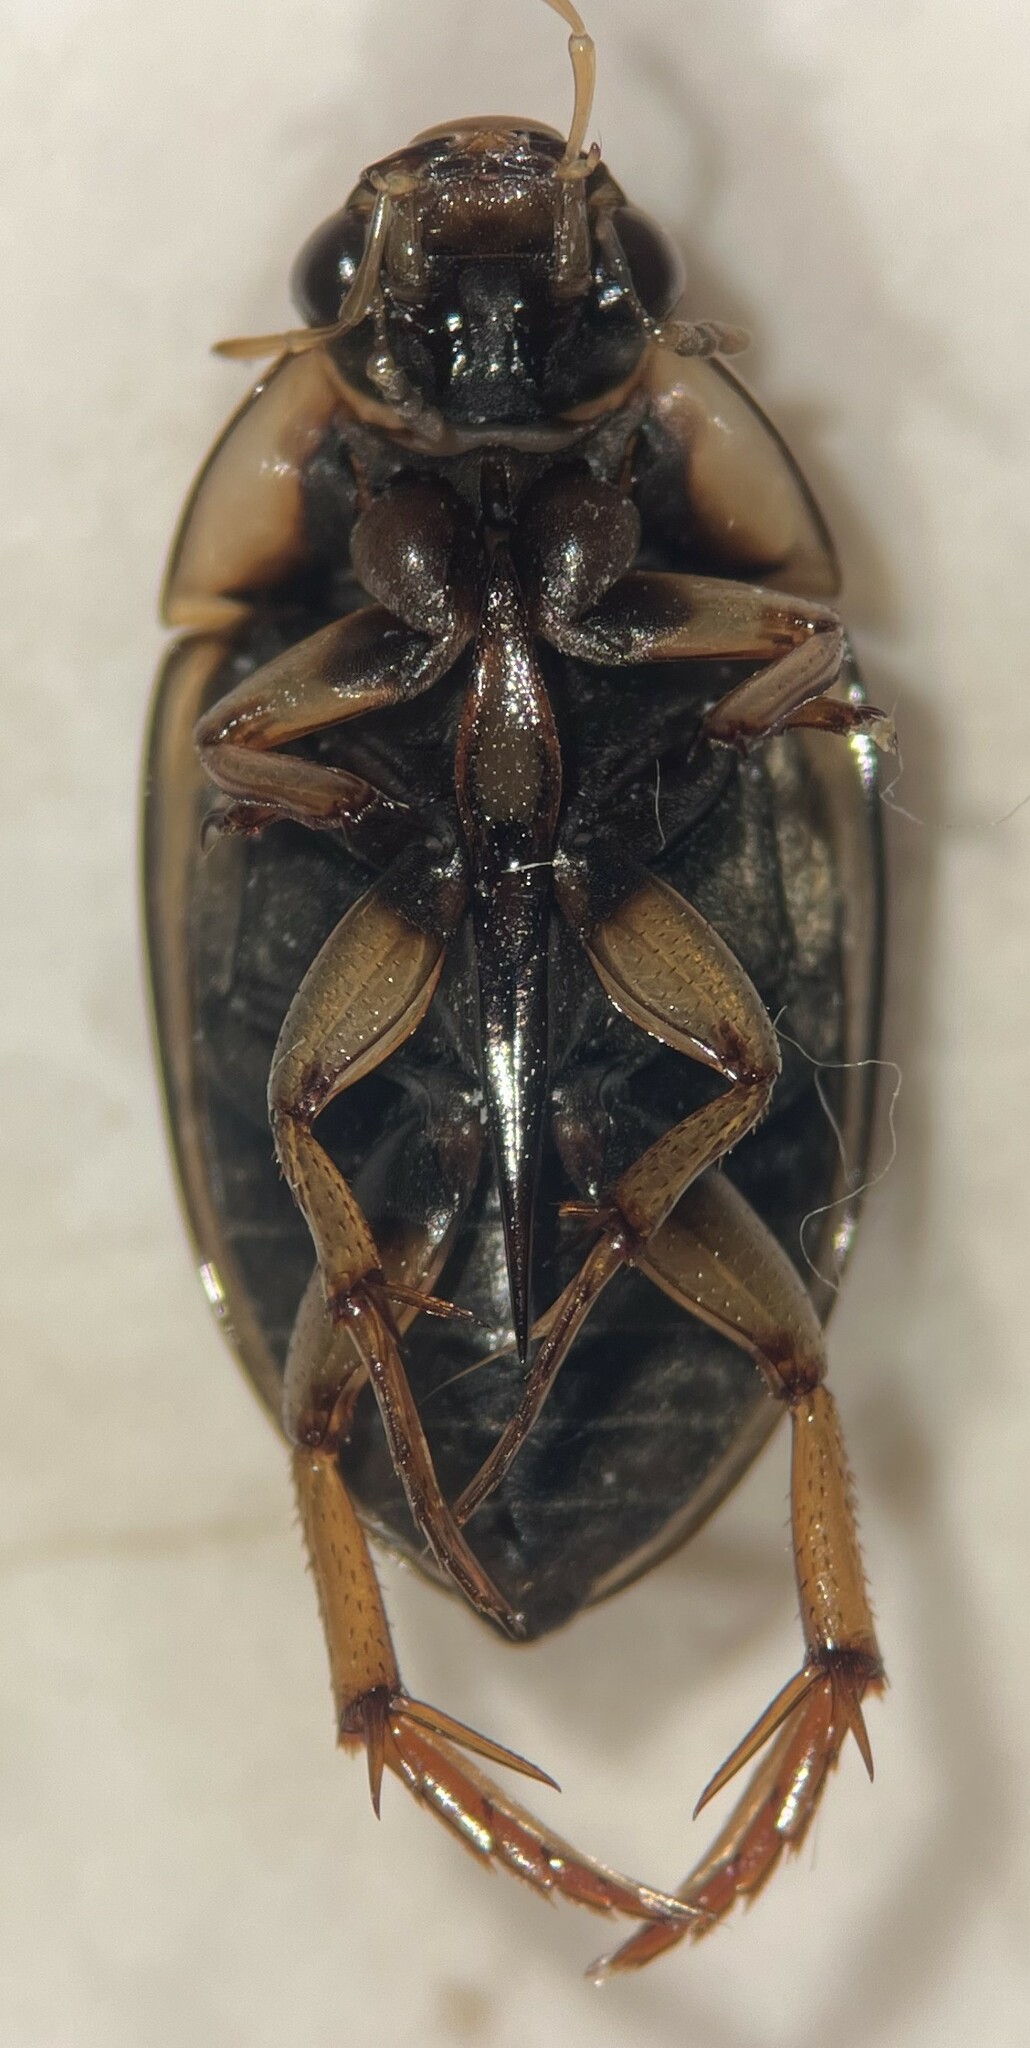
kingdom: Animalia
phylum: Arthropoda
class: Insecta
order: Coleoptera
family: Hydrophilidae
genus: Tropisternus
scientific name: Tropisternus collaris
